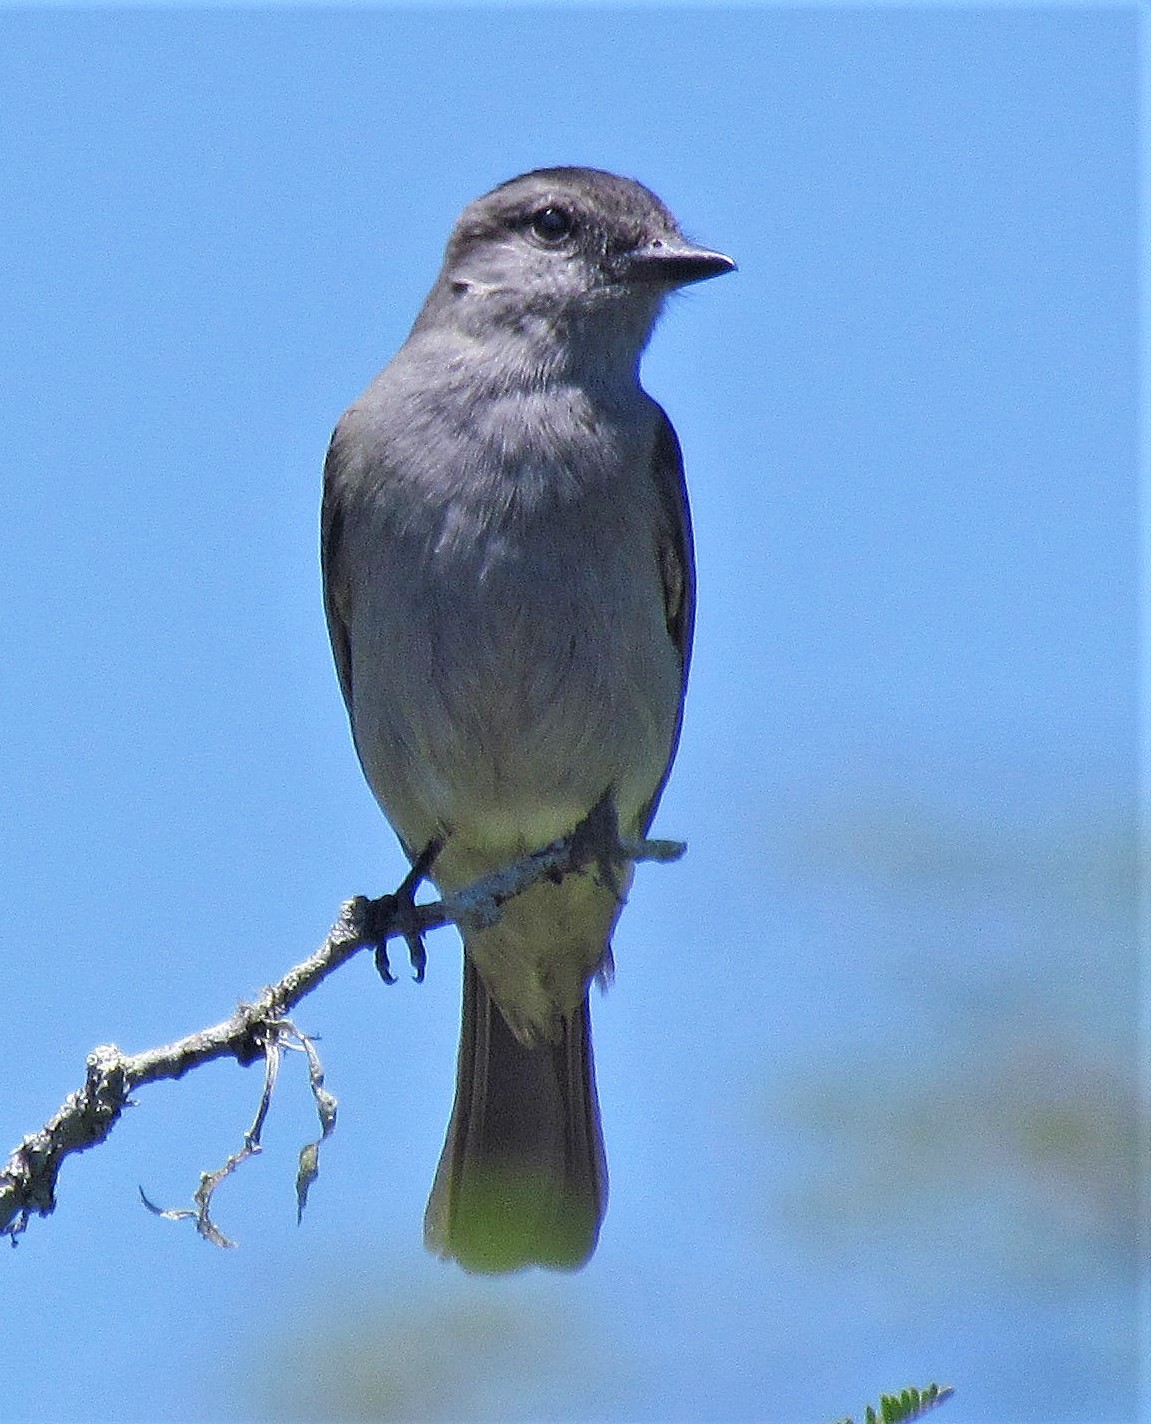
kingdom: Animalia
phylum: Chordata
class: Aves
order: Passeriformes
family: Tyrannidae
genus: Empidonomus
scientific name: Empidonomus aurantioatrocristatus
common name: Crowned slaty flycatcher
